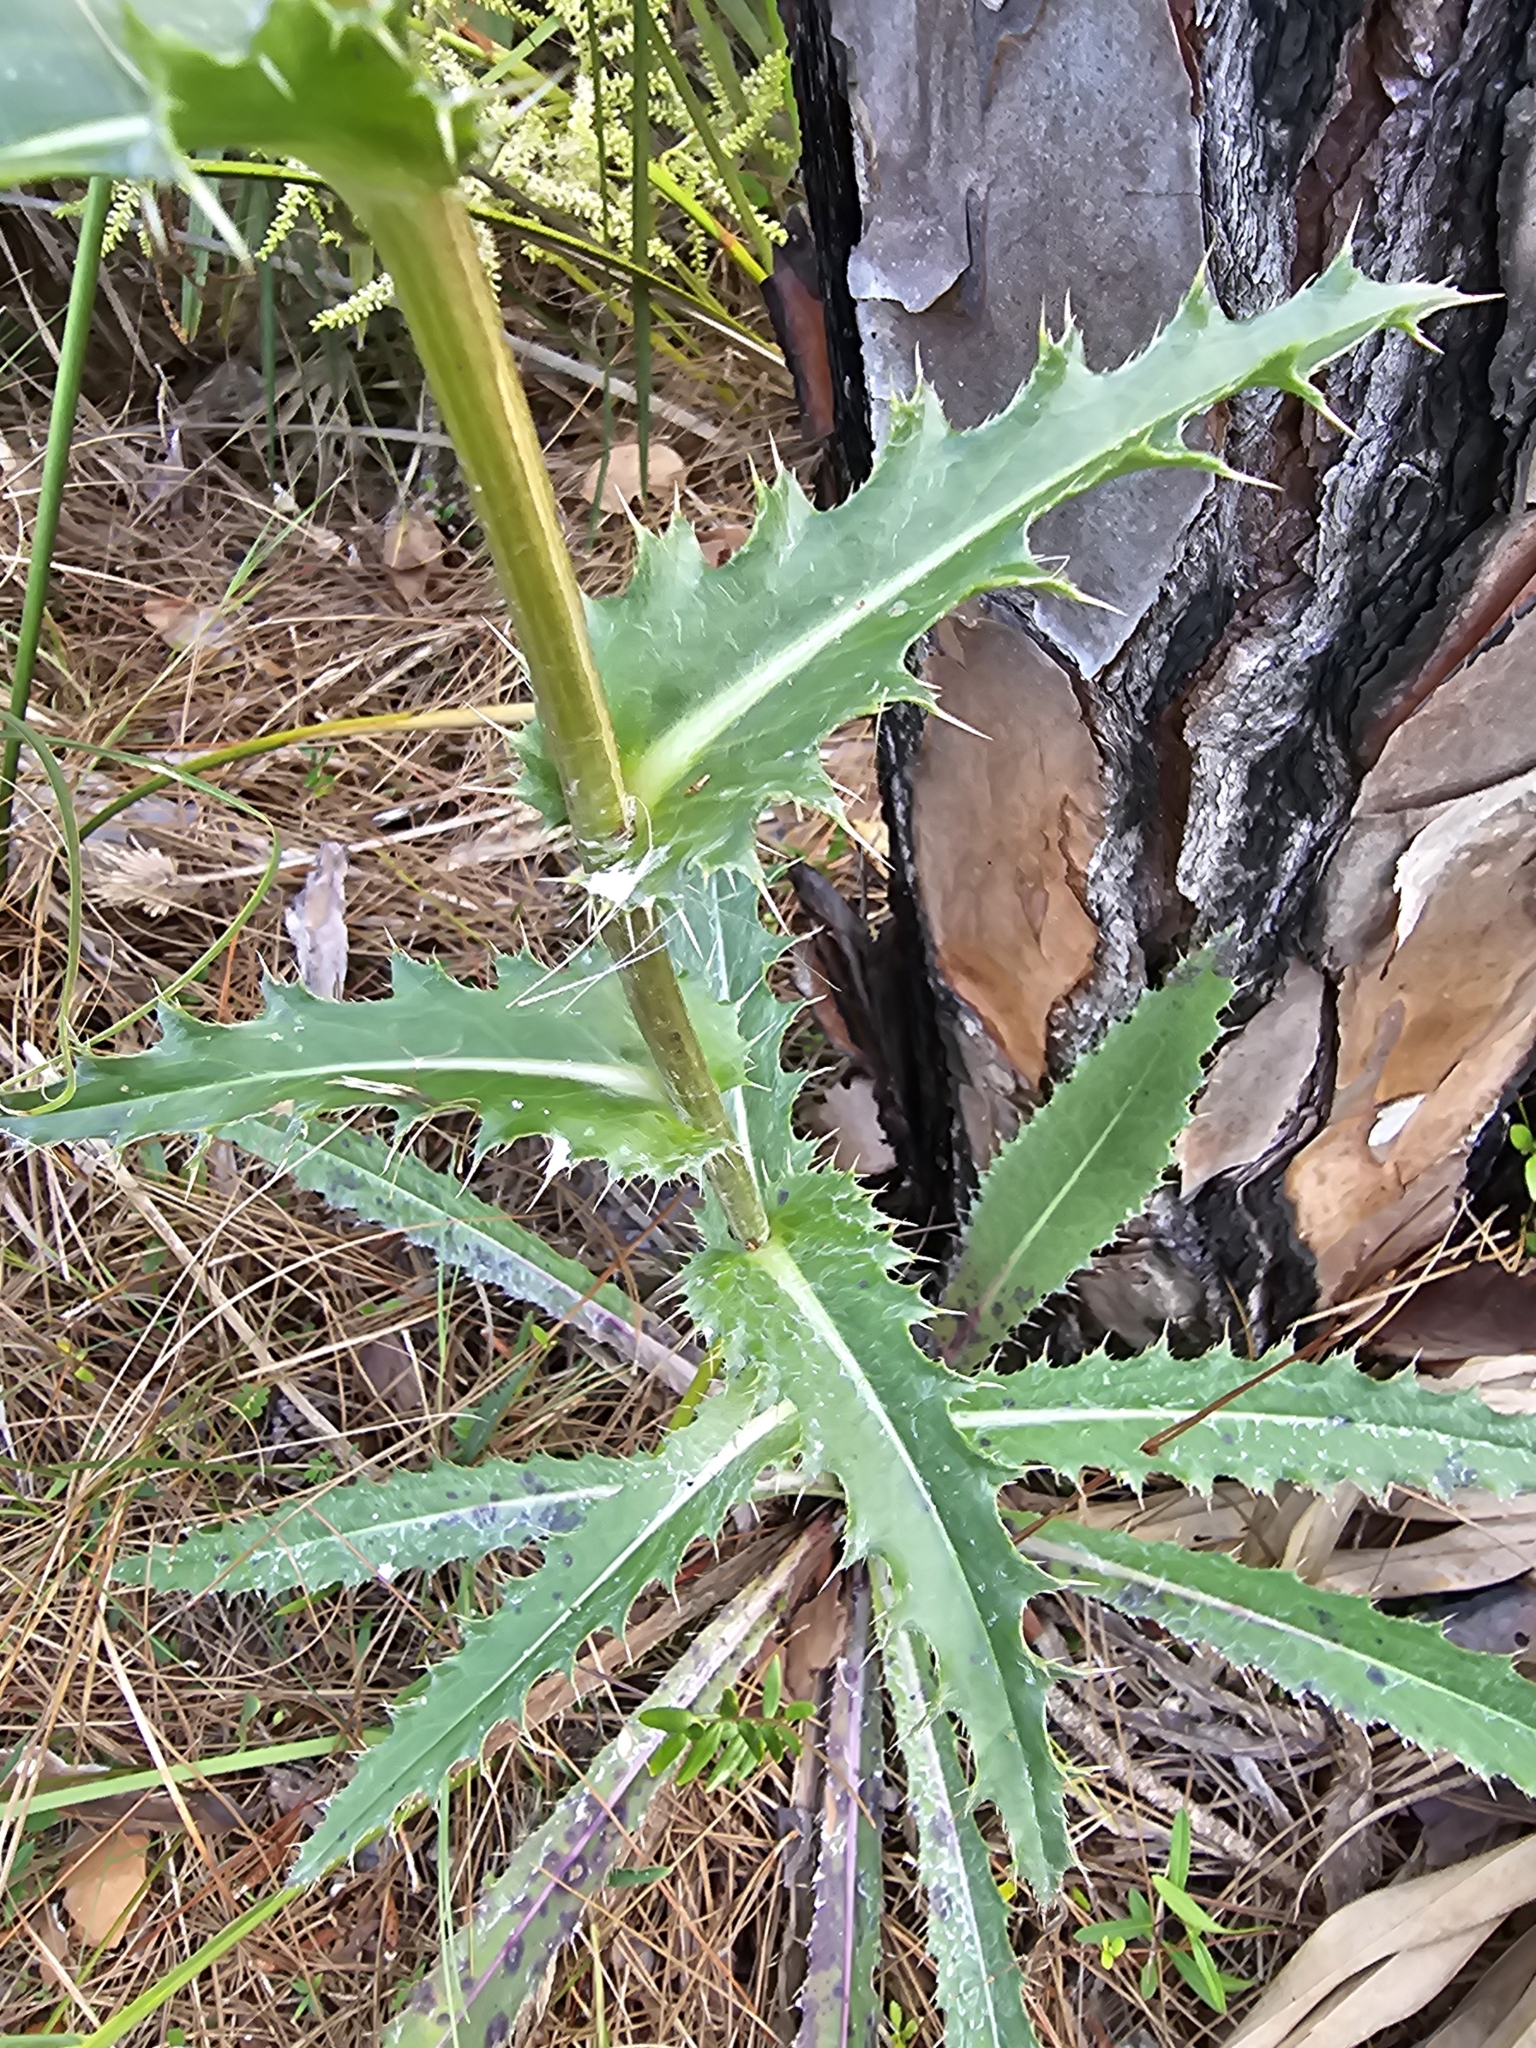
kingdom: Plantae
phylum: Tracheophyta
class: Magnoliopsida
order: Asterales
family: Asteraceae
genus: Cirsium
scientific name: Cirsium horridulum
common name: Bristly thistle
